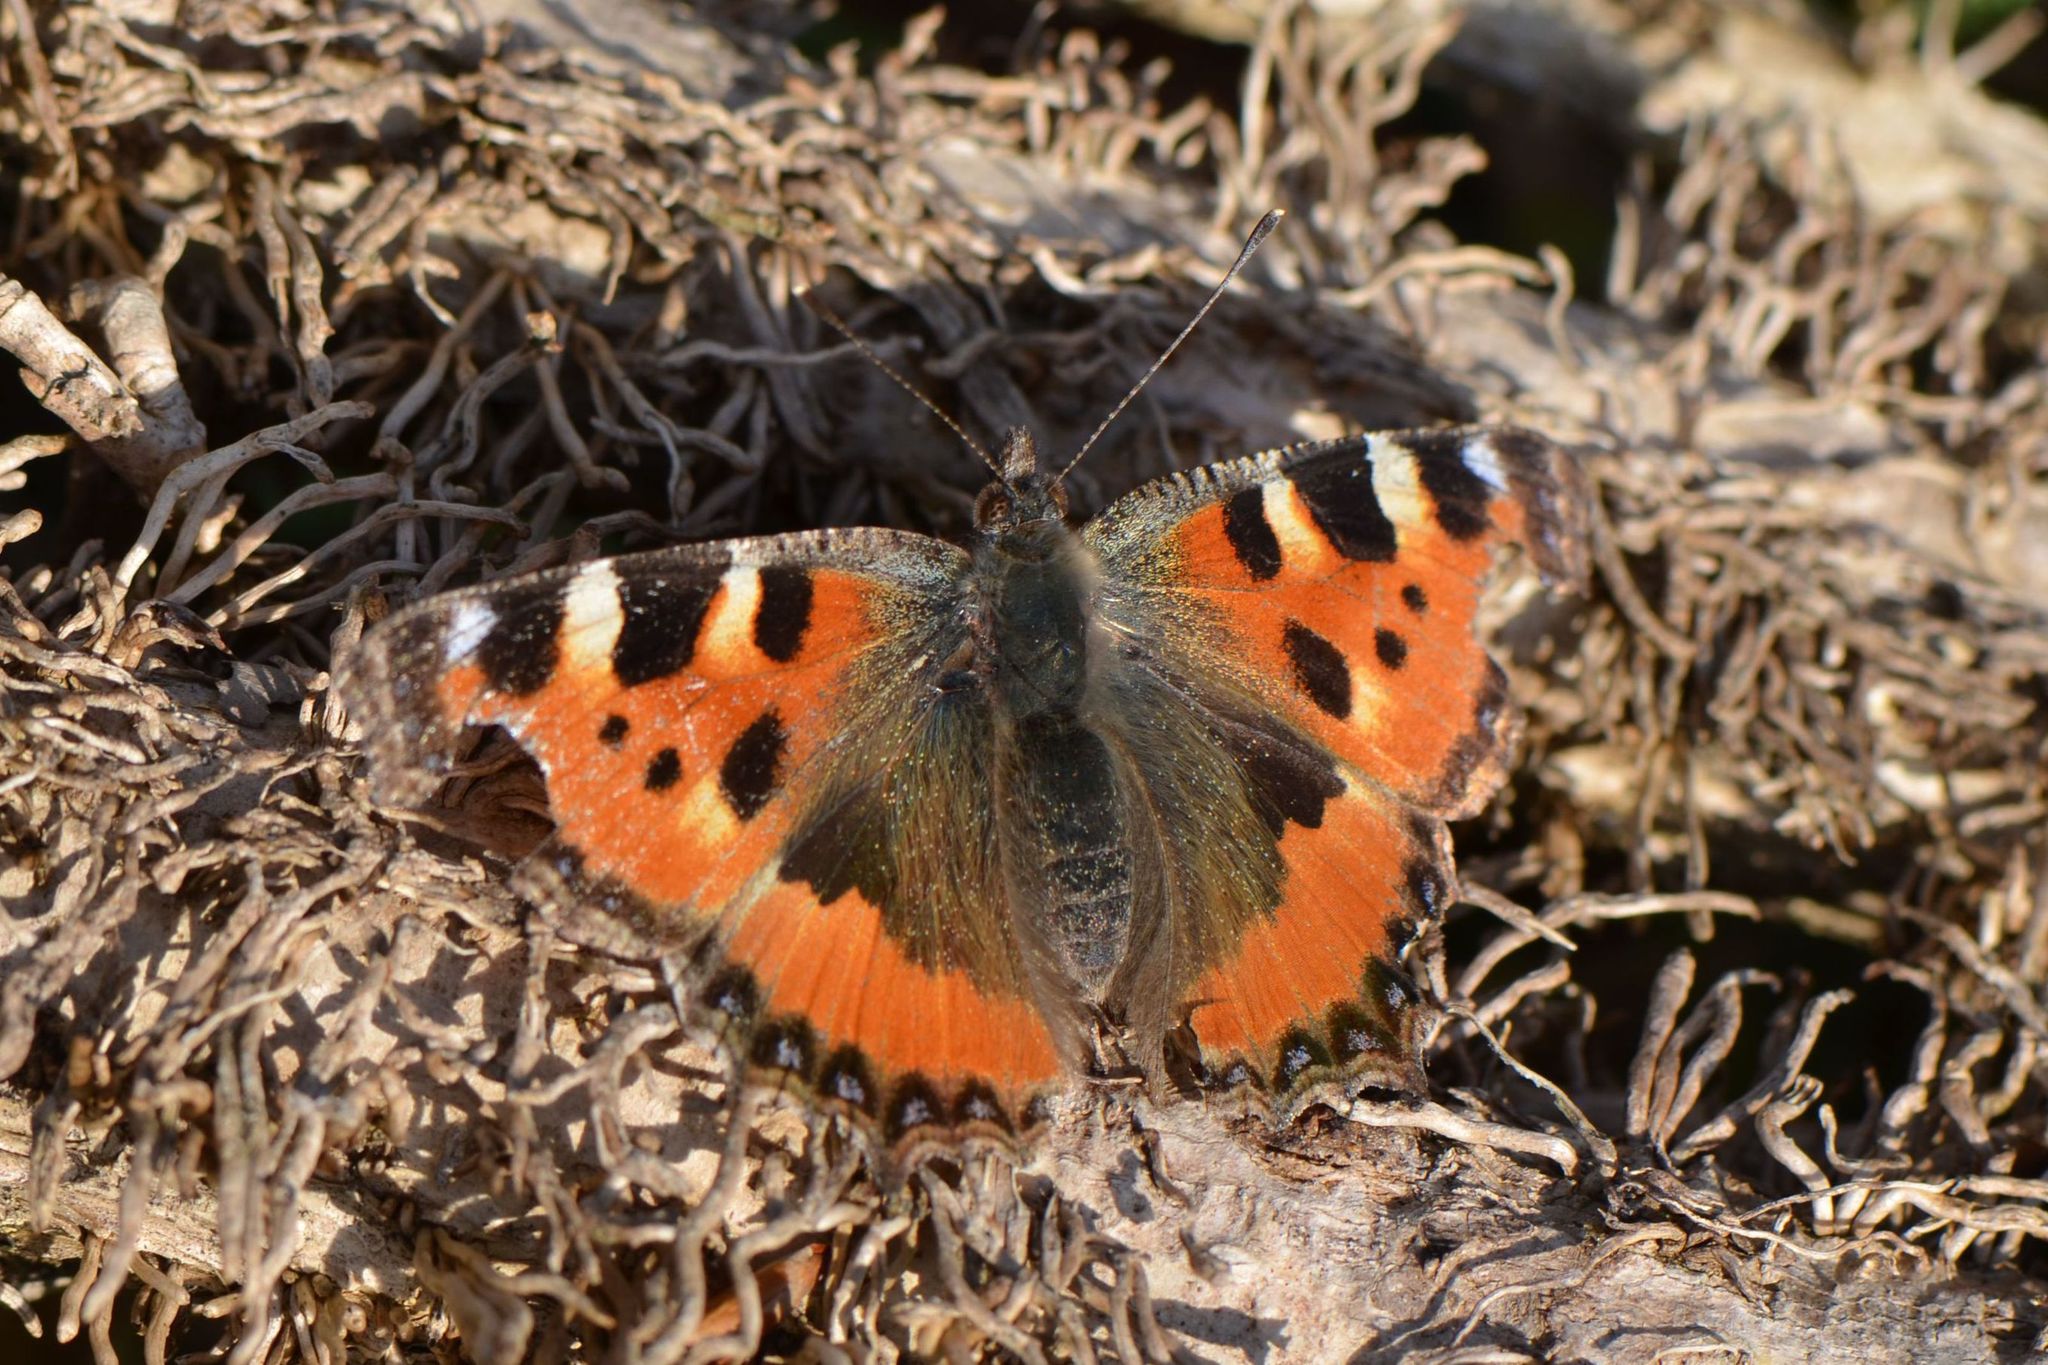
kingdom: Animalia
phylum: Arthropoda
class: Insecta
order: Lepidoptera
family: Nymphalidae
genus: Aglais
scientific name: Aglais urticae
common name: Small tortoiseshell
